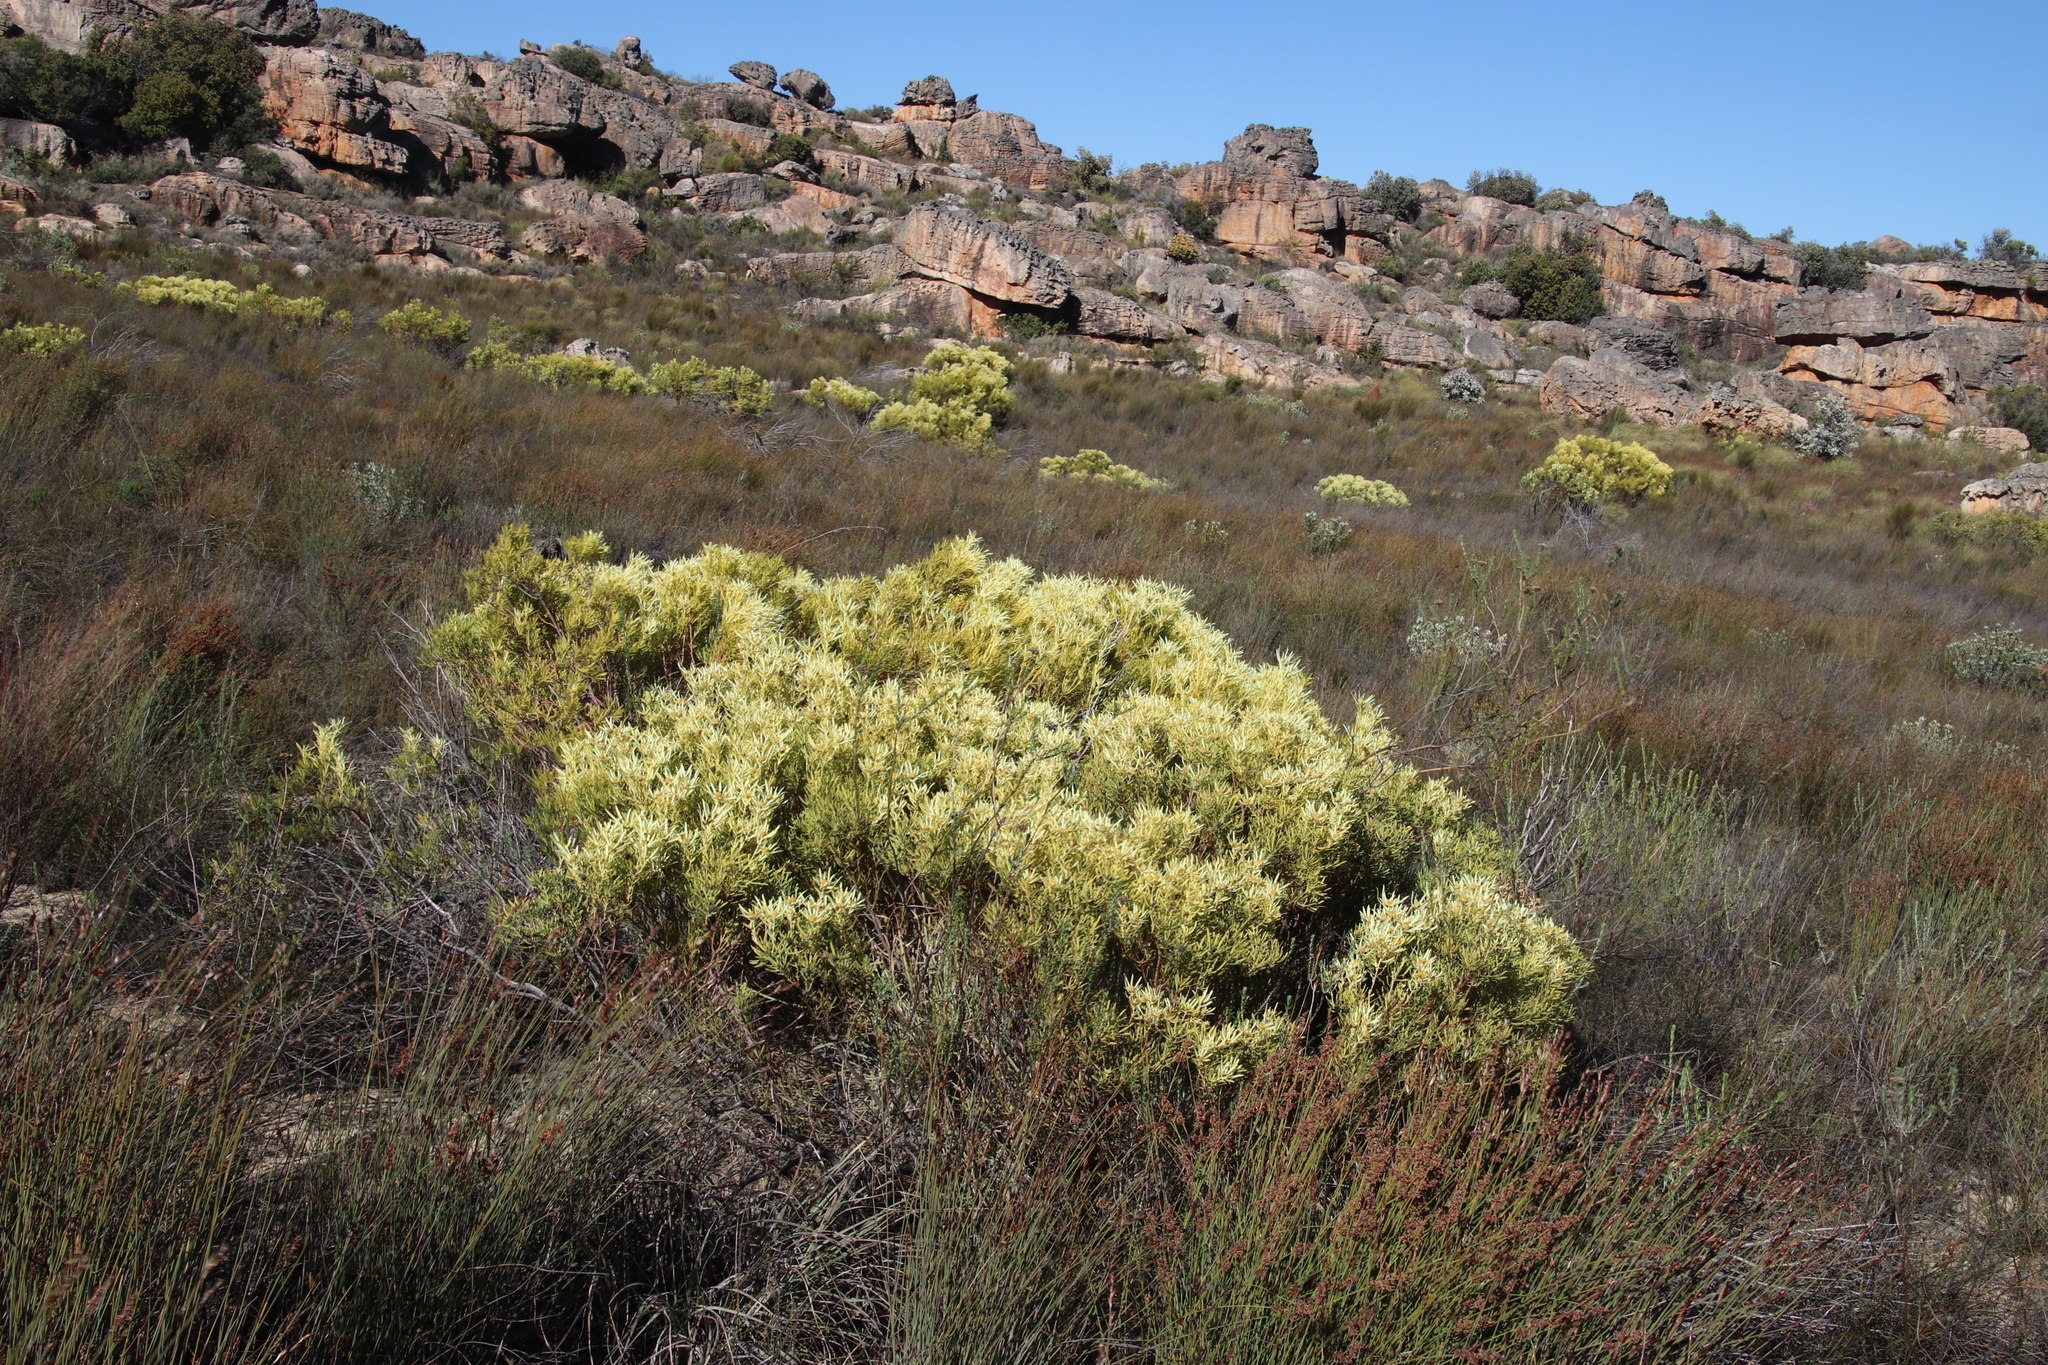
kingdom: Plantae
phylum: Tracheophyta
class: Magnoliopsida
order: Proteales
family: Proteaceae
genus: Leucadendron
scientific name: Leucadendron salignum
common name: Common sunshine conebush
